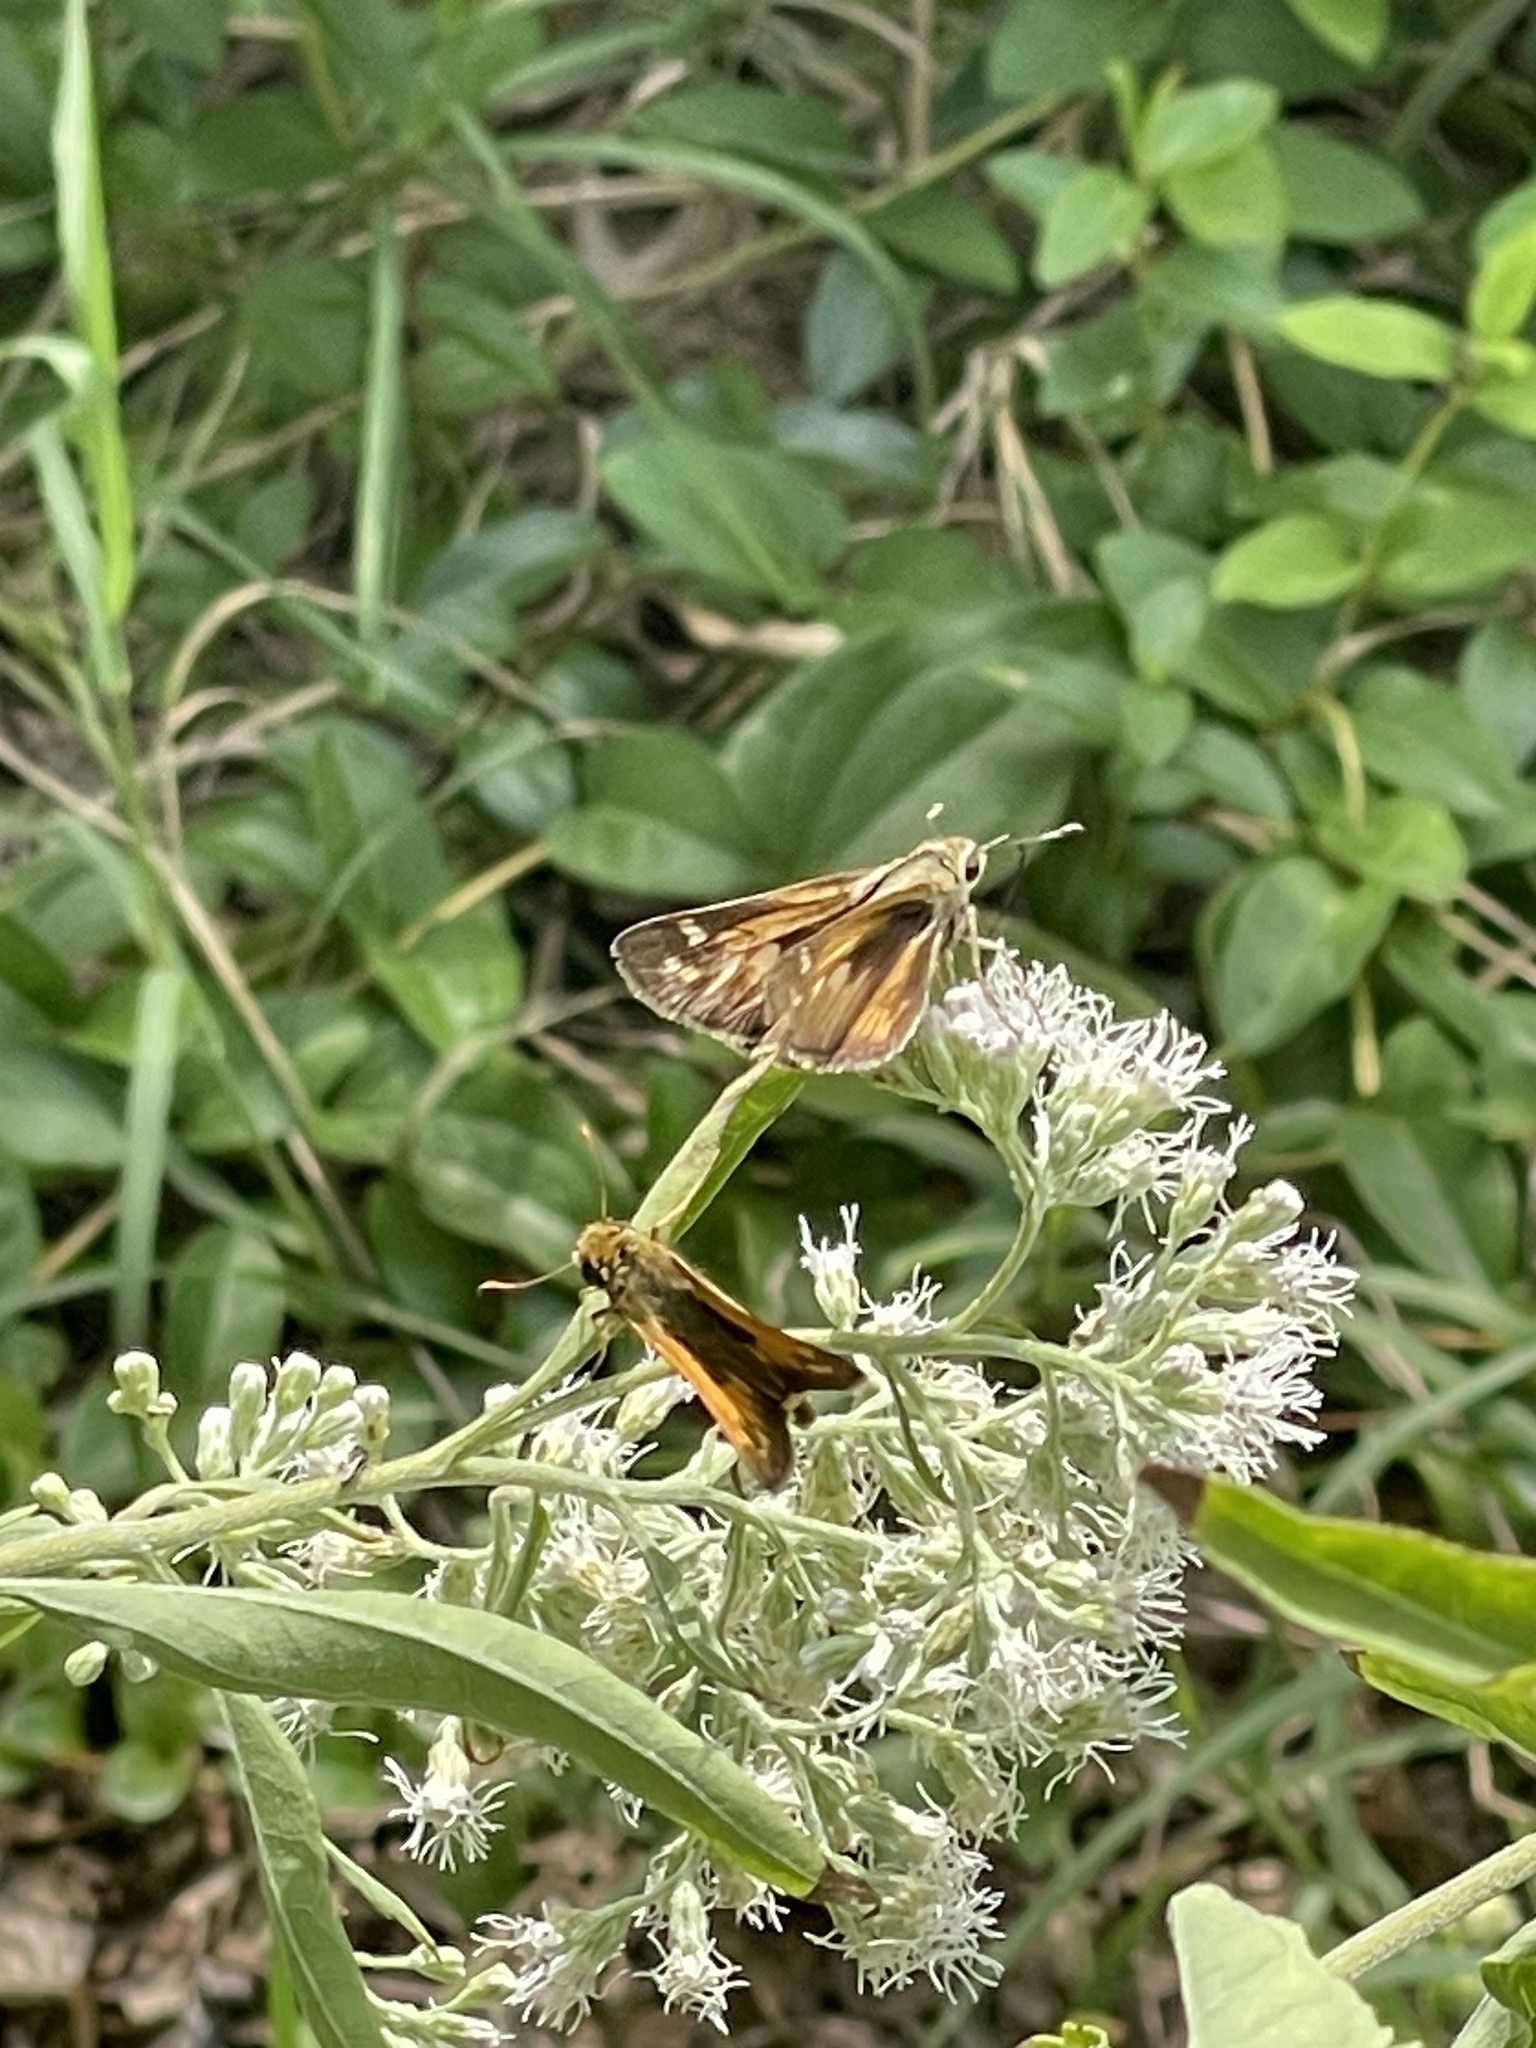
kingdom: Animalia
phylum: Arthropoda
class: Insecta
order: Lepidoptera
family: Hesperiidae
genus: Atalopedes
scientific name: Atalopedes
